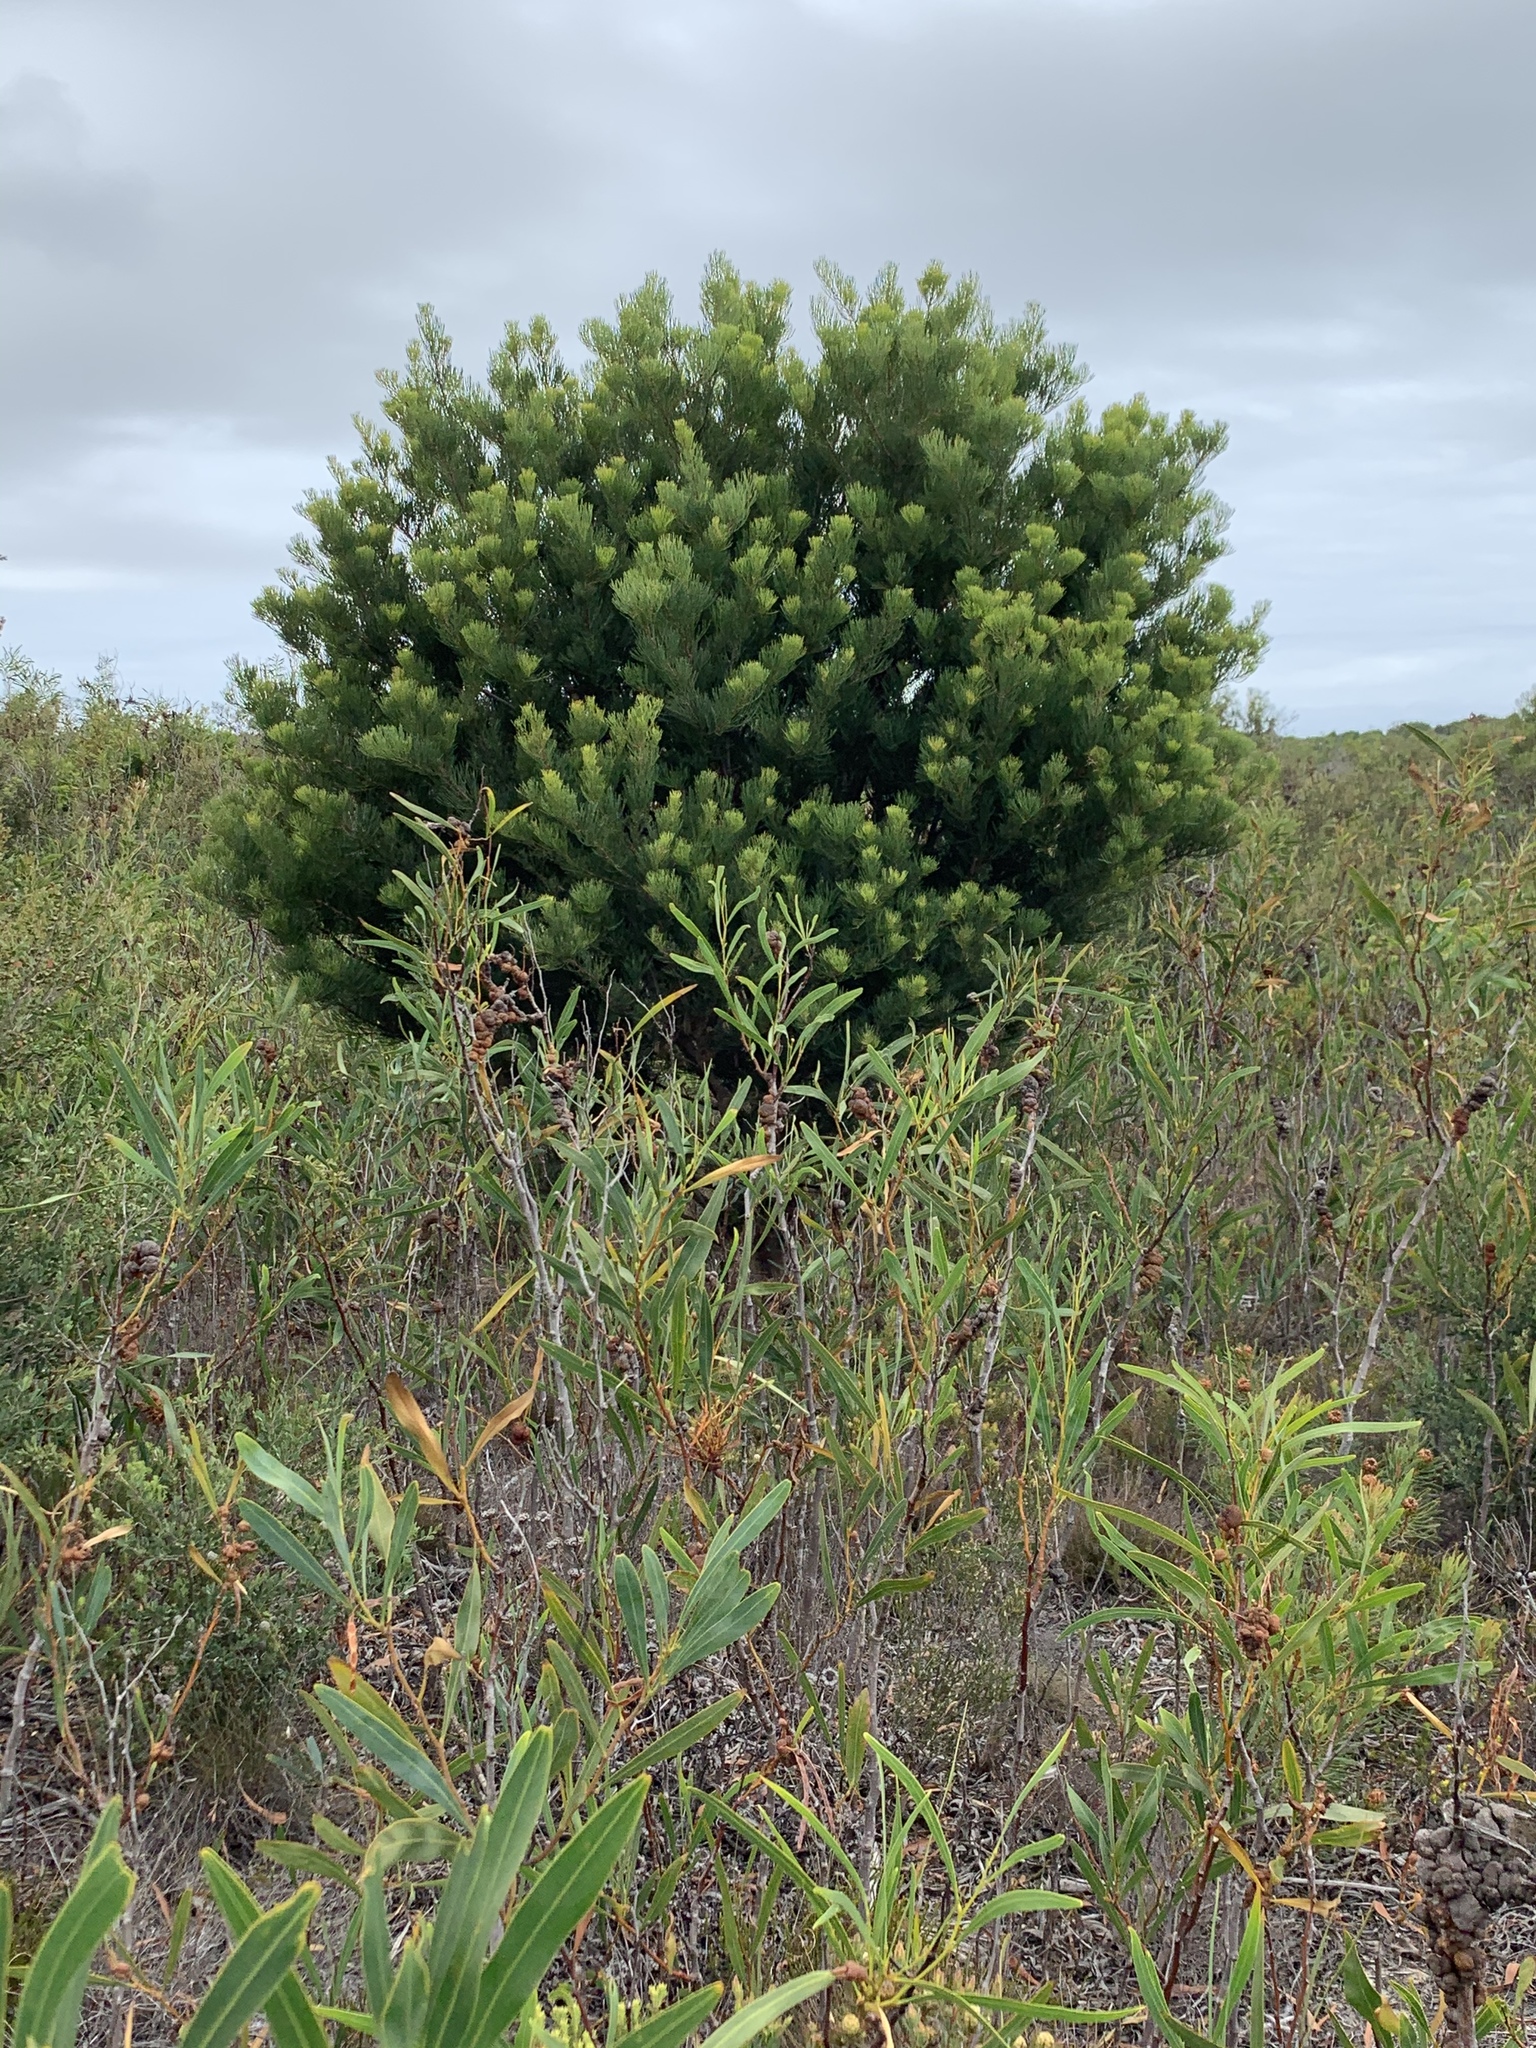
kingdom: Plantae
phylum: Tracheophyta
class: Magnoliopsida
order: Proteales
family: Proteaceae
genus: Hakea
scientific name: Hakea drupacea
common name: Sweet hakea
